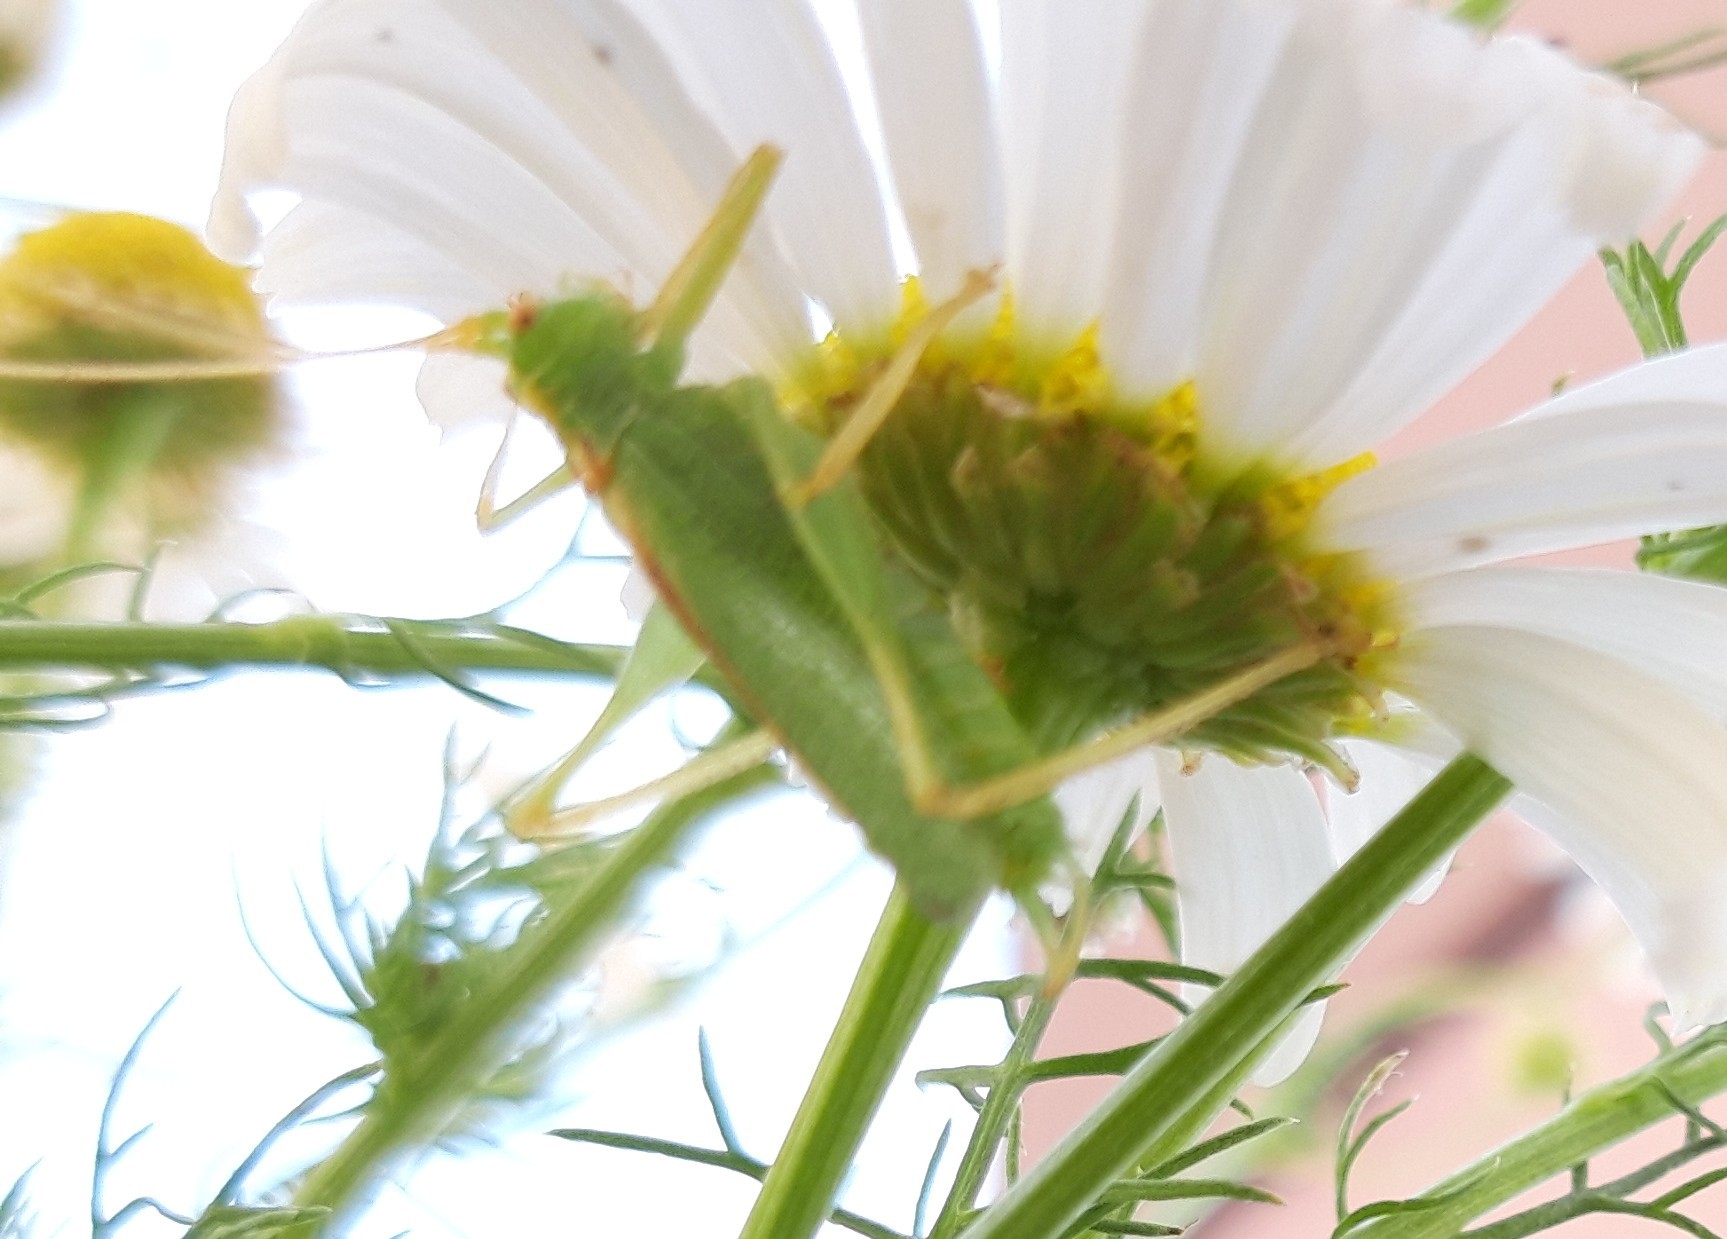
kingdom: Animalia
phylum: Arthropoda
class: Insecta
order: Orthoptera
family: Tettigoniidae
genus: Meconema
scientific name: Meconema thalassinum
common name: Oak bush-cricket
